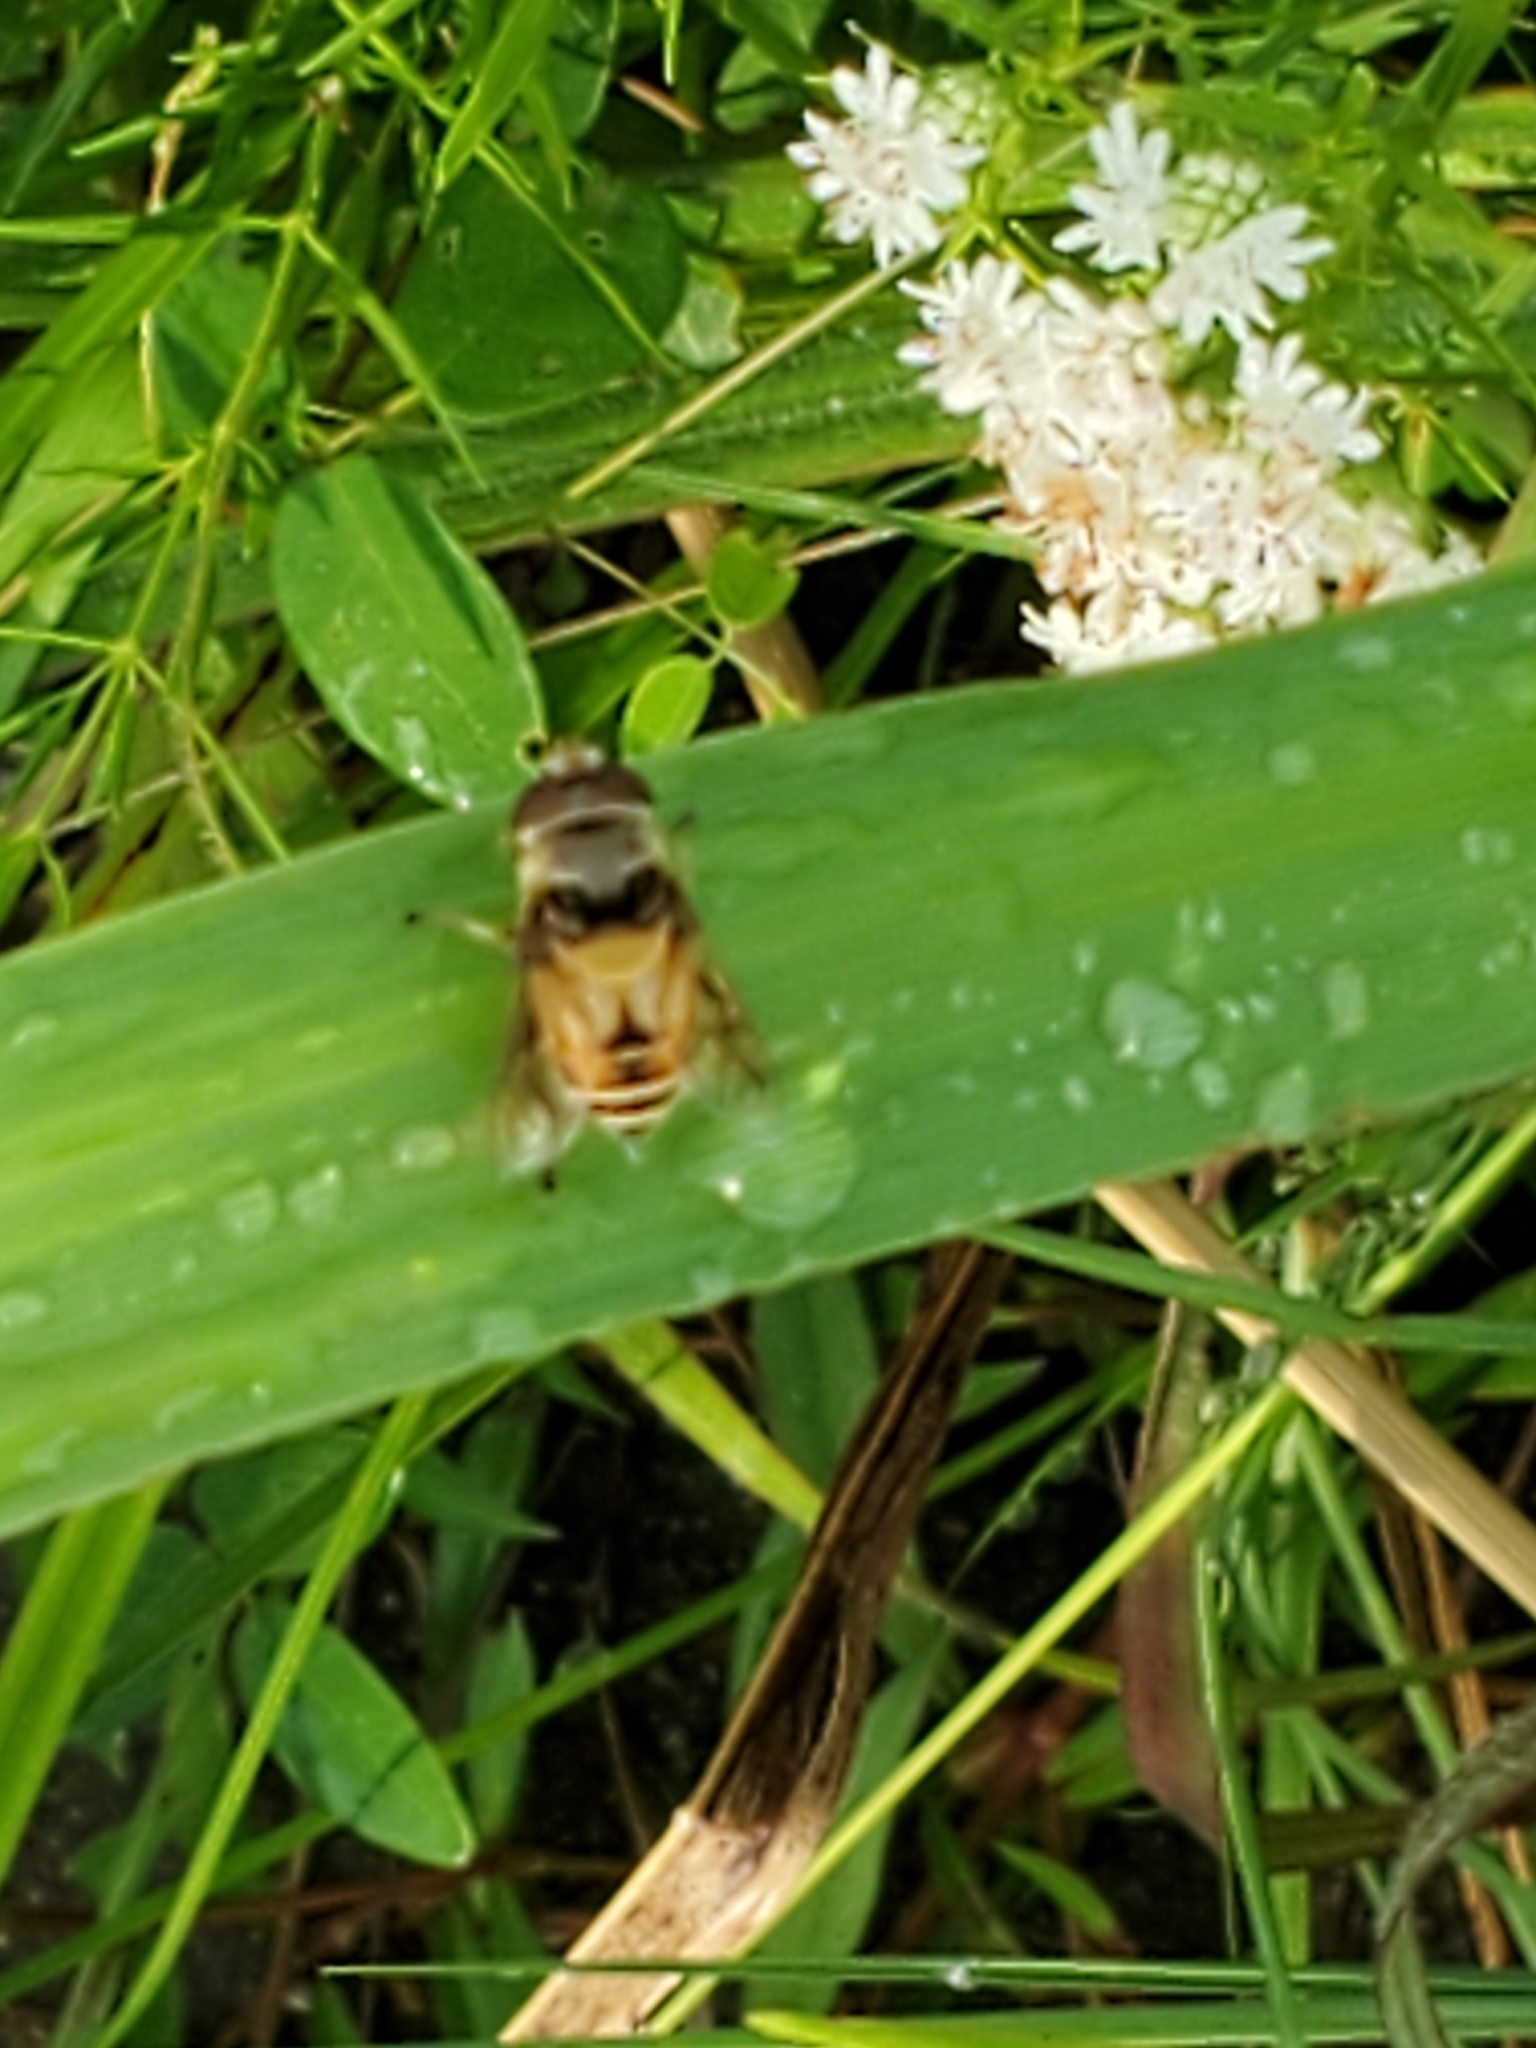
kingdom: Animalia
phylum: Arthropoda
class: Insecta
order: Diptera
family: Syrphidae
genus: Palpada
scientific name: Palpada pusilla
